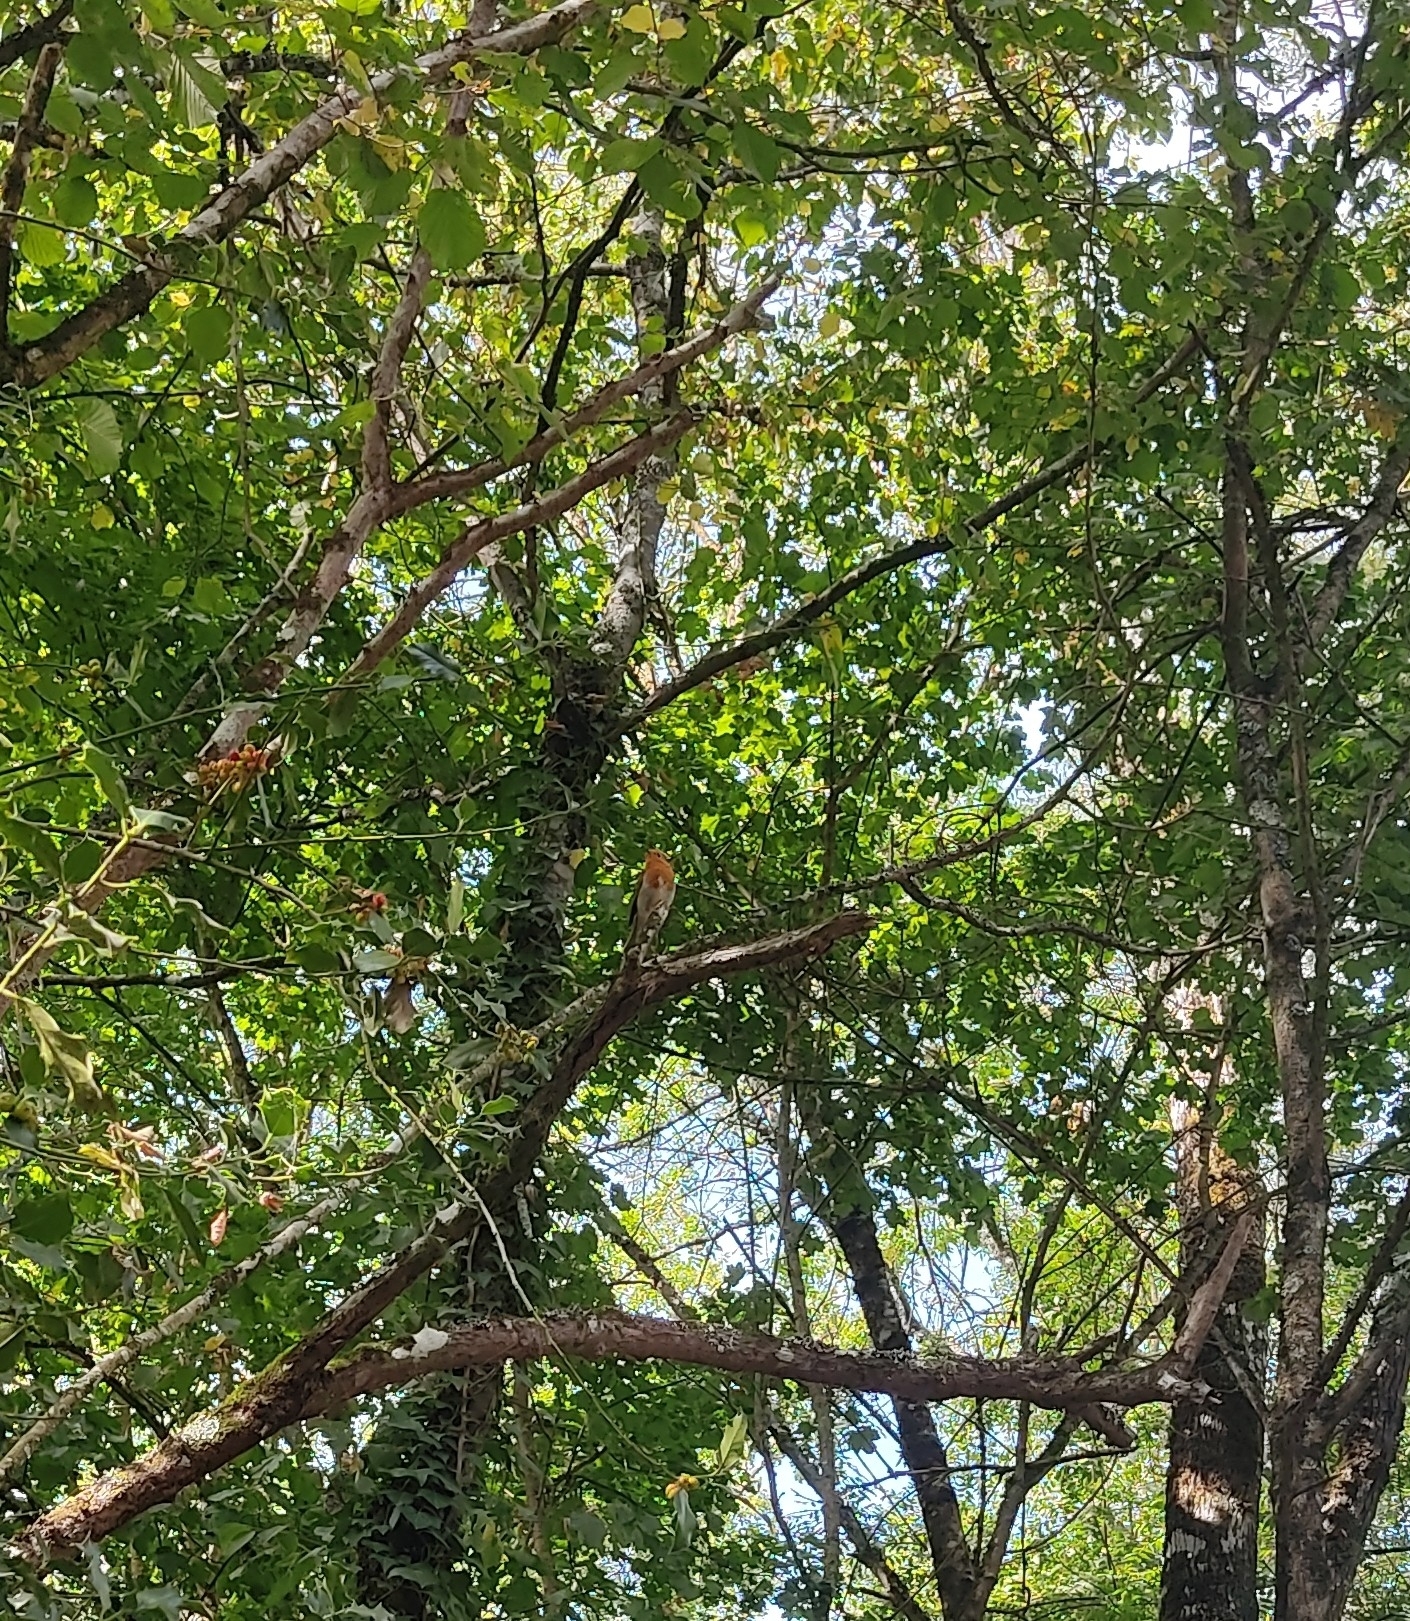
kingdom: Animalia
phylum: Chordata
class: Aves
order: Passeriformes
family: Muscicapidae
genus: Erithacus
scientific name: Erithacus rubecula
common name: European robin
